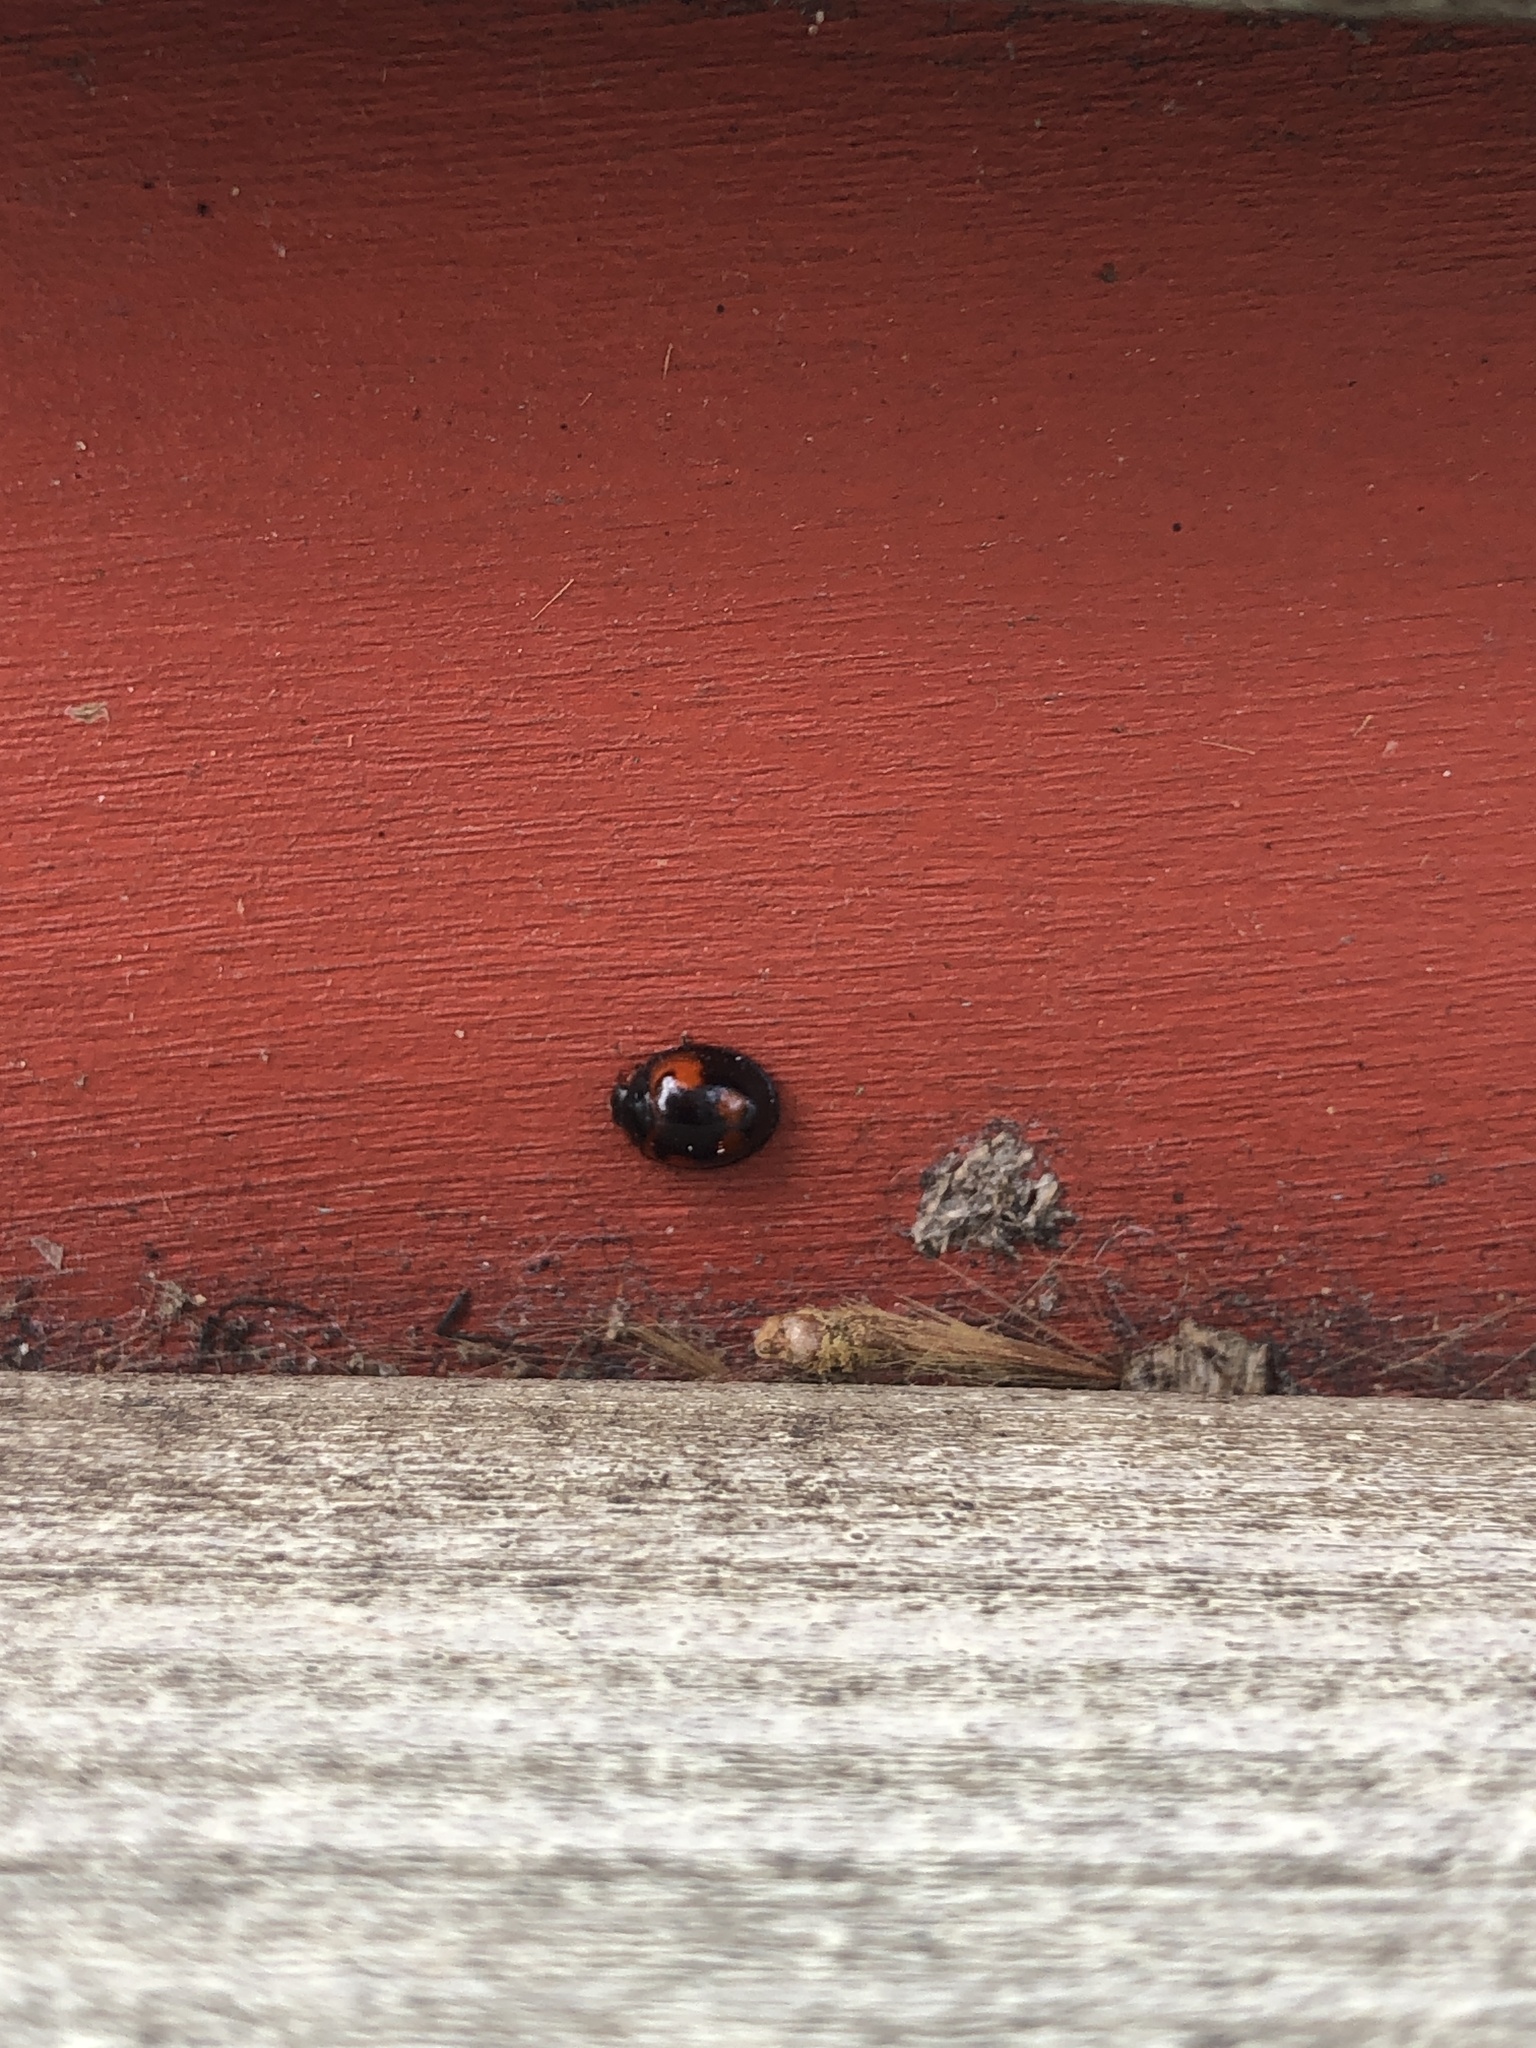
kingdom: Animalia
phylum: Arthropoda
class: Insecta
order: Coleoptera
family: Coccinellidae
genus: Brumus
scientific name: Brumus quadripustulatus
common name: Ladybird beetle
